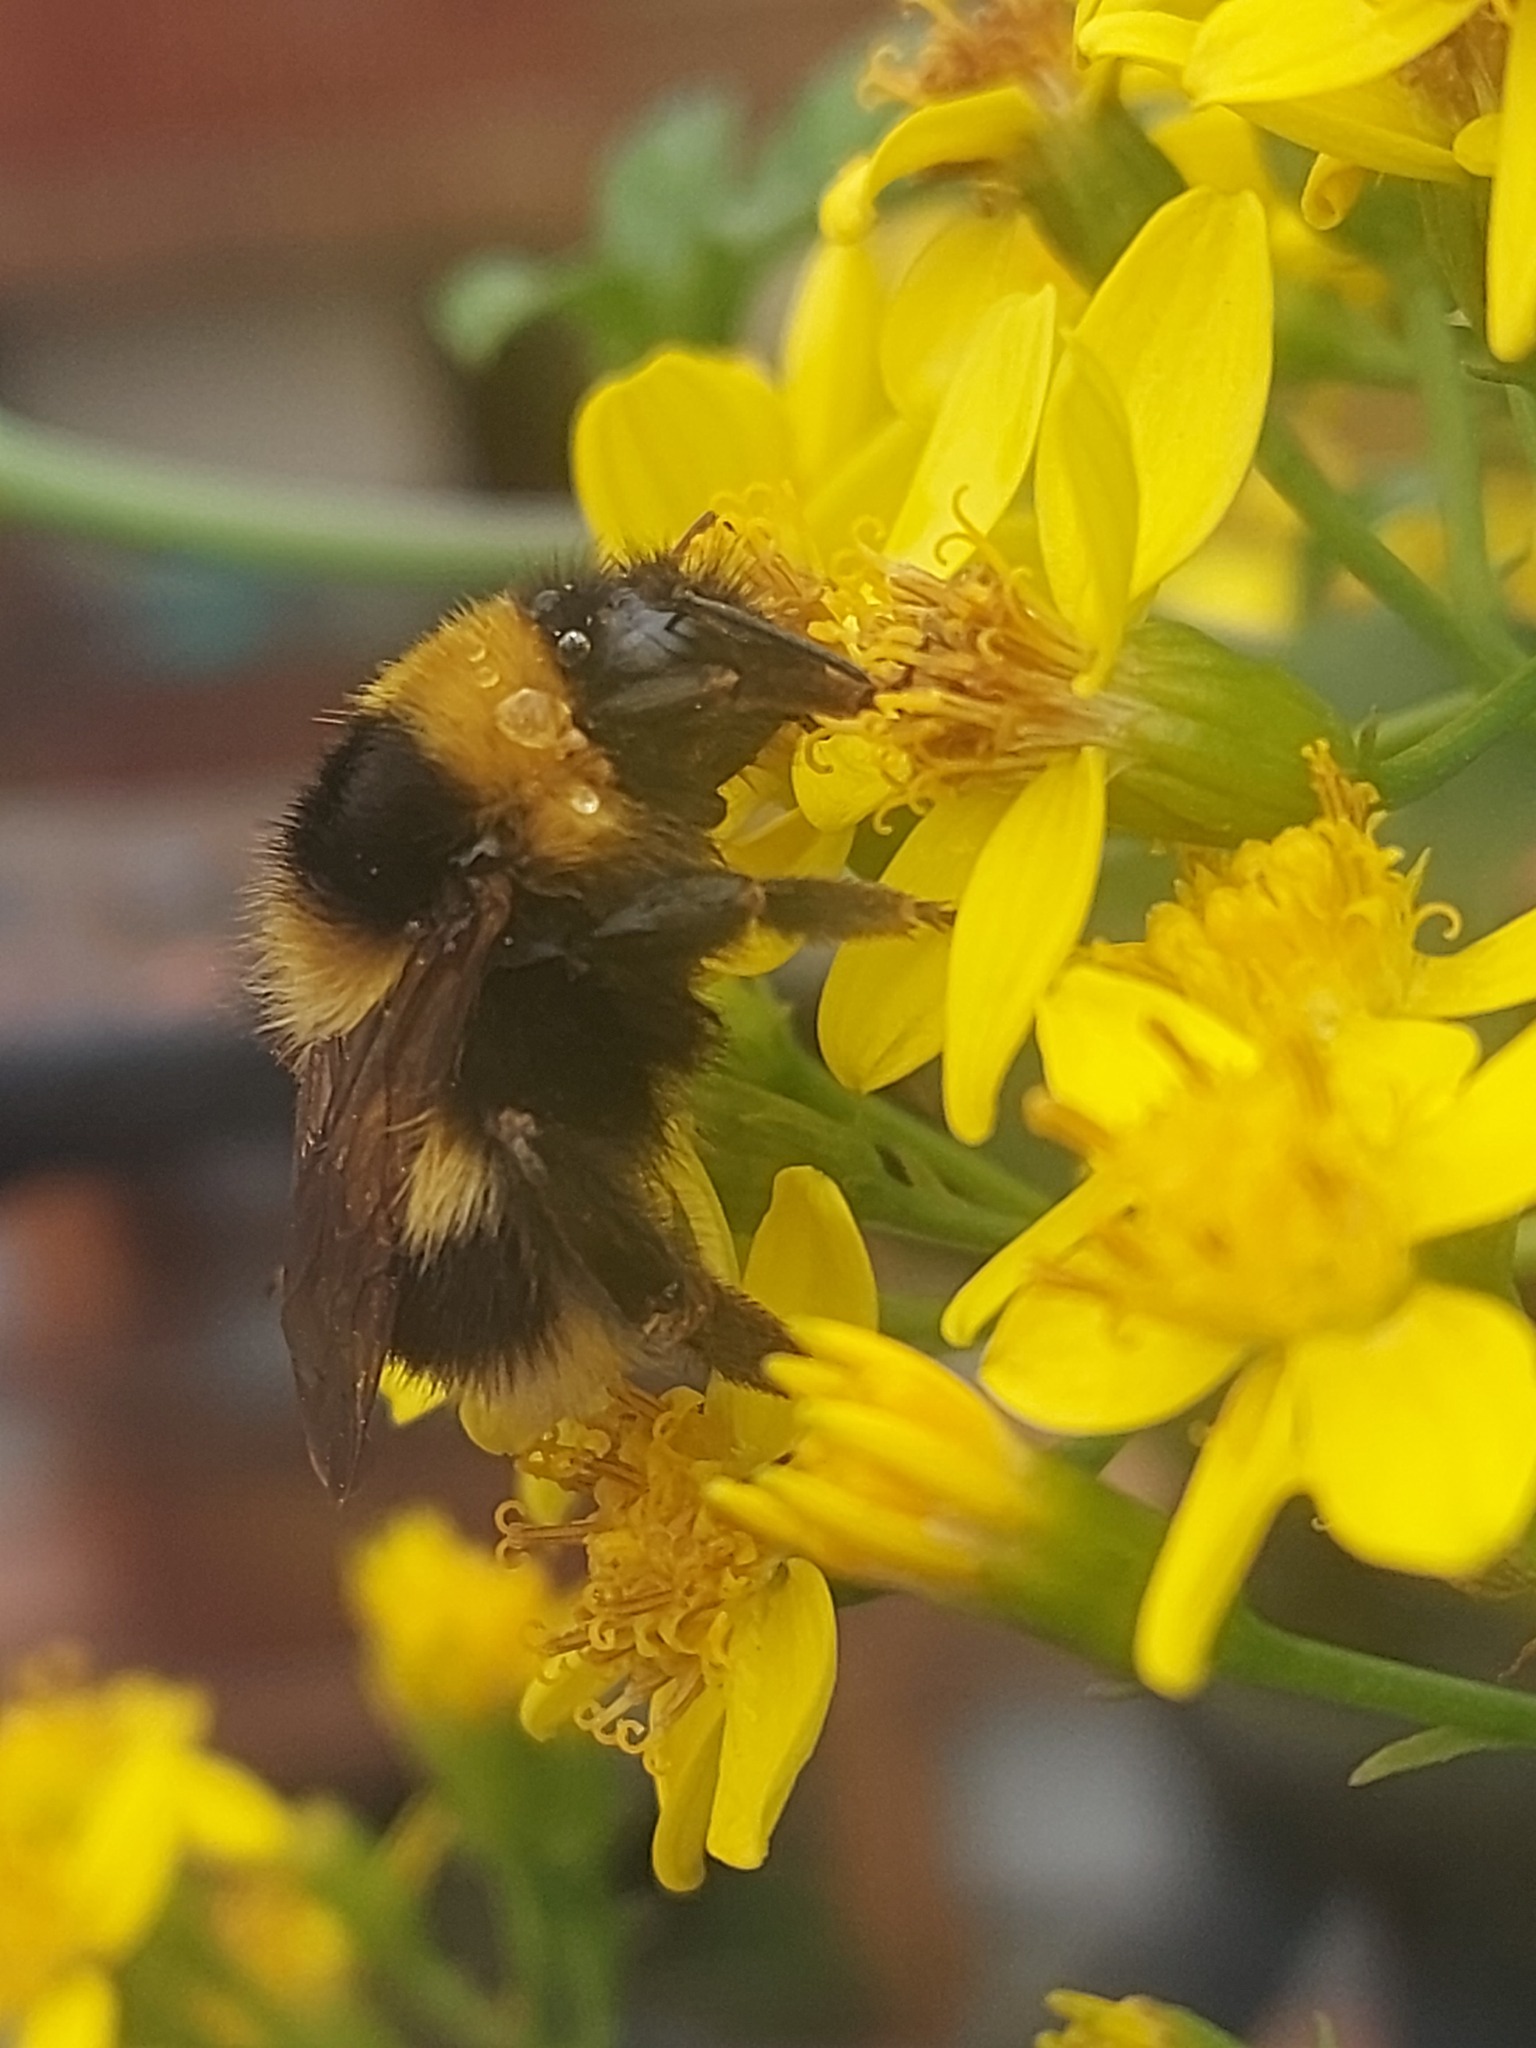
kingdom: Animalia
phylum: Arthropoda
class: Insecta
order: Hymenoptera
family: Apidae
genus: Bombus
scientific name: Bombus hortorum
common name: Garden bumblebee
